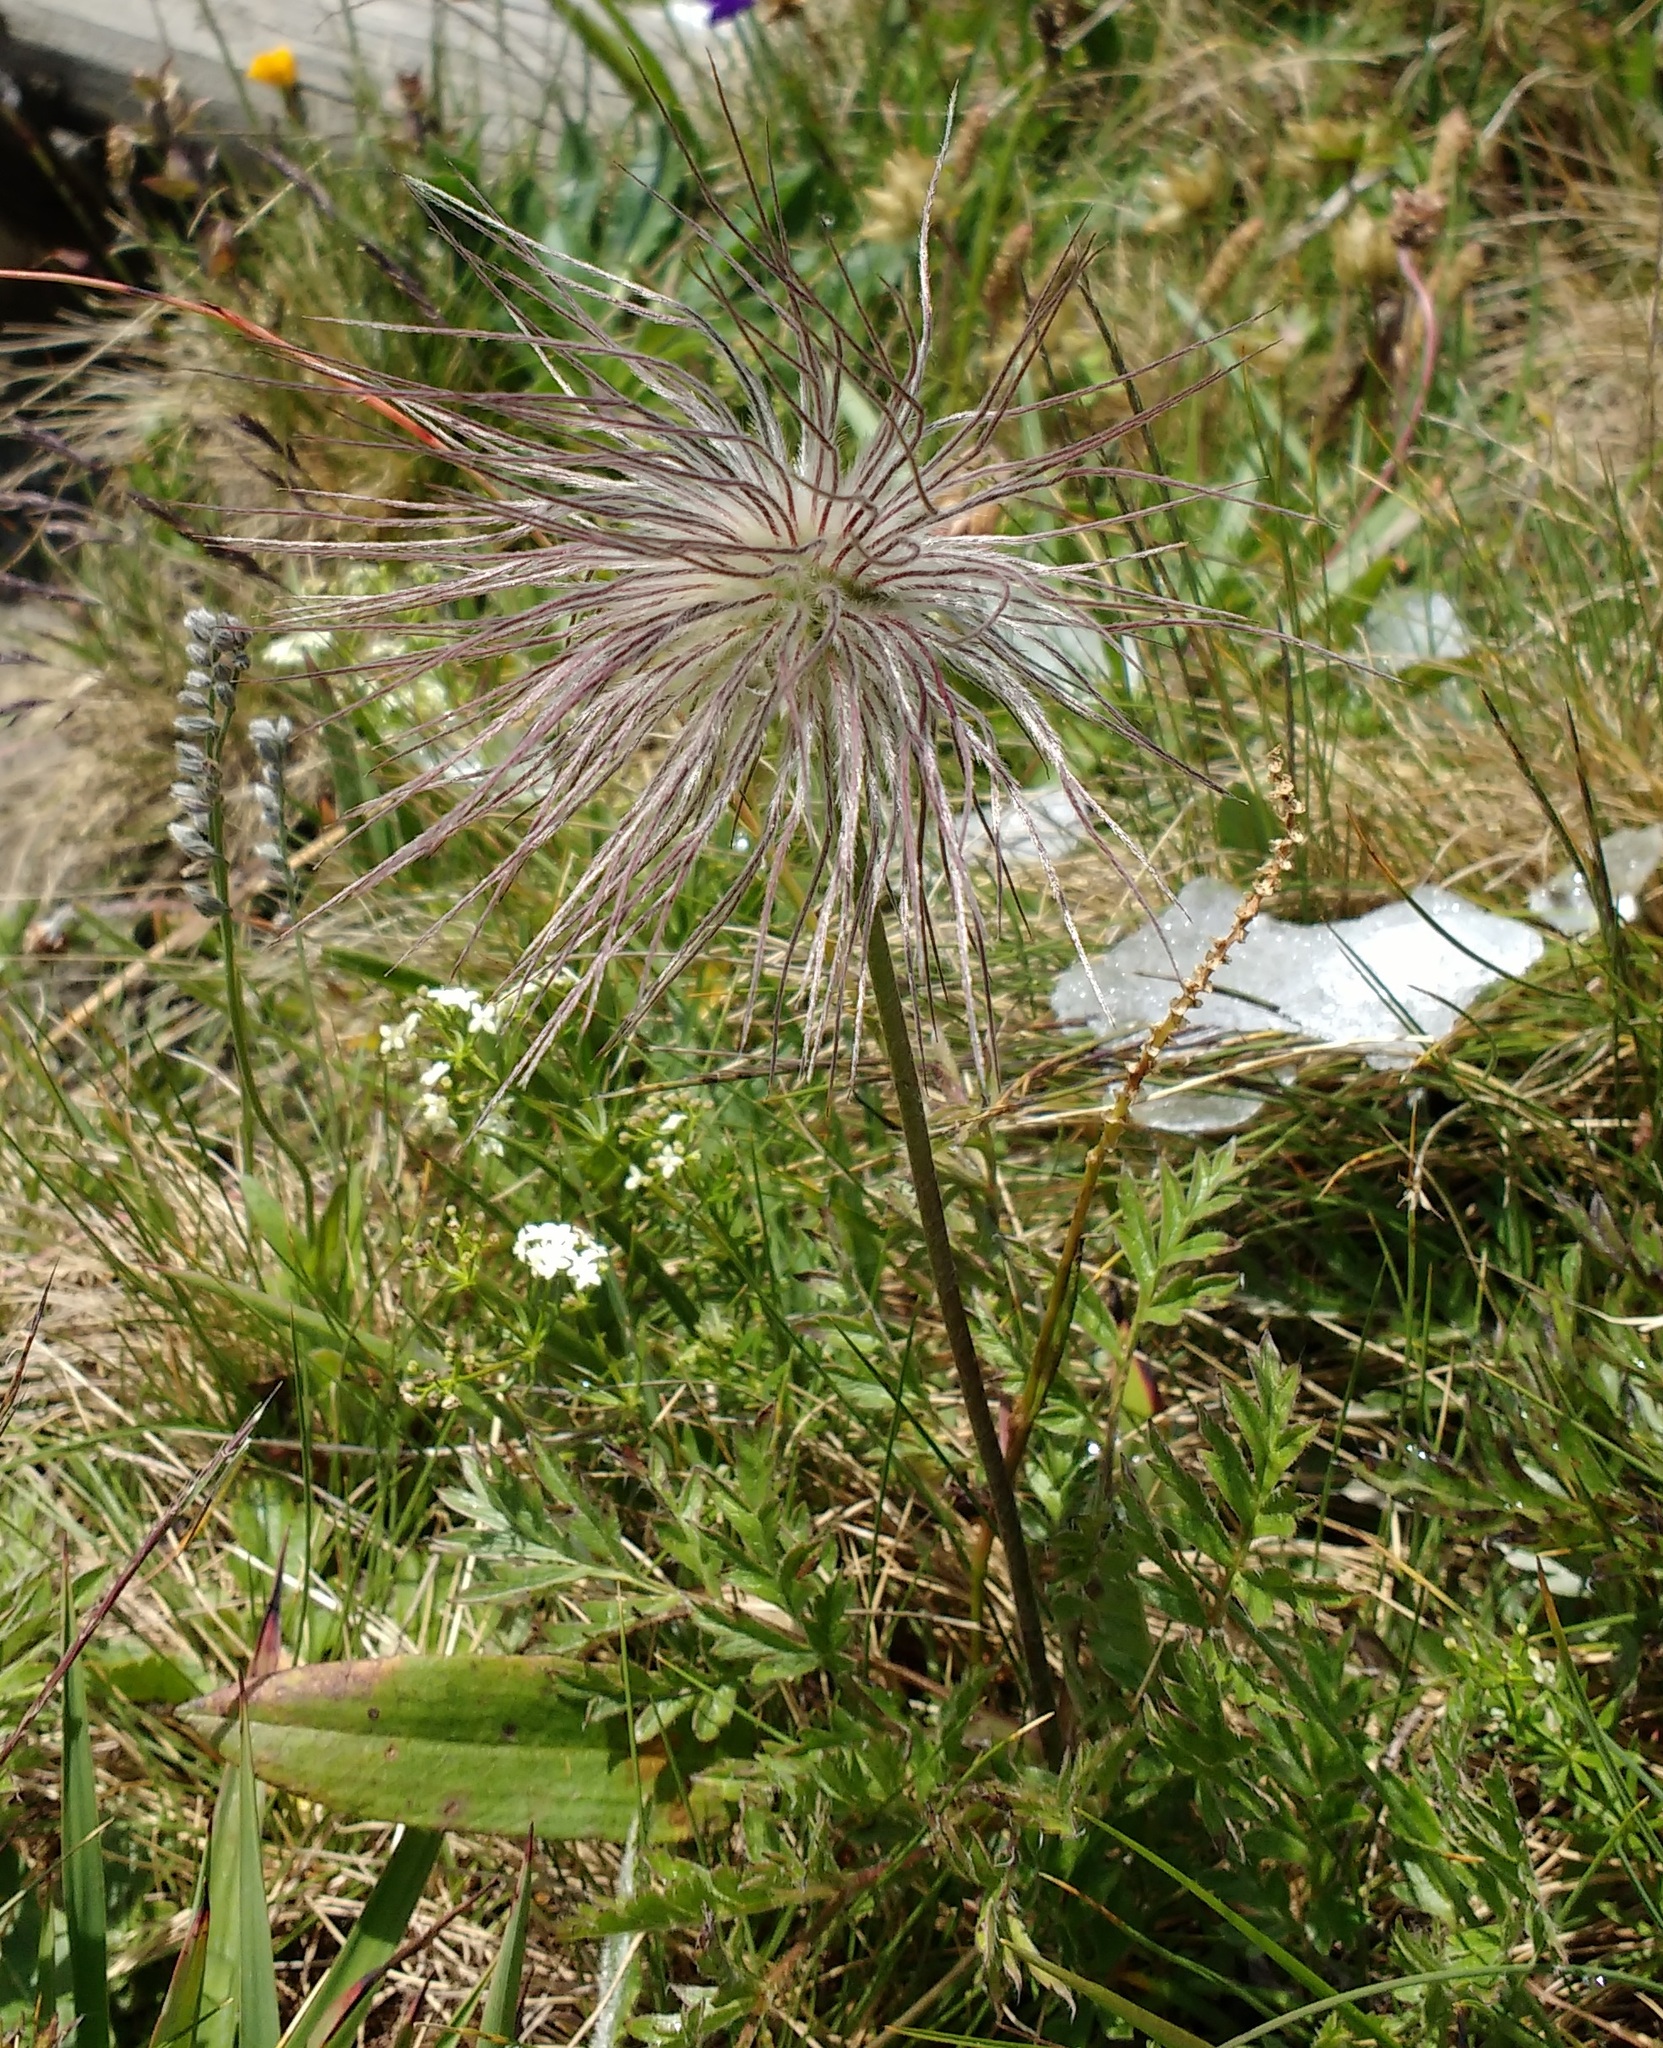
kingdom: Plantae
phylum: Tracheophyta
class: Magnoliopsida
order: Ranunculales
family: Ranunculaceae
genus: Pulsatilla
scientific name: Pulsatilla alpina
